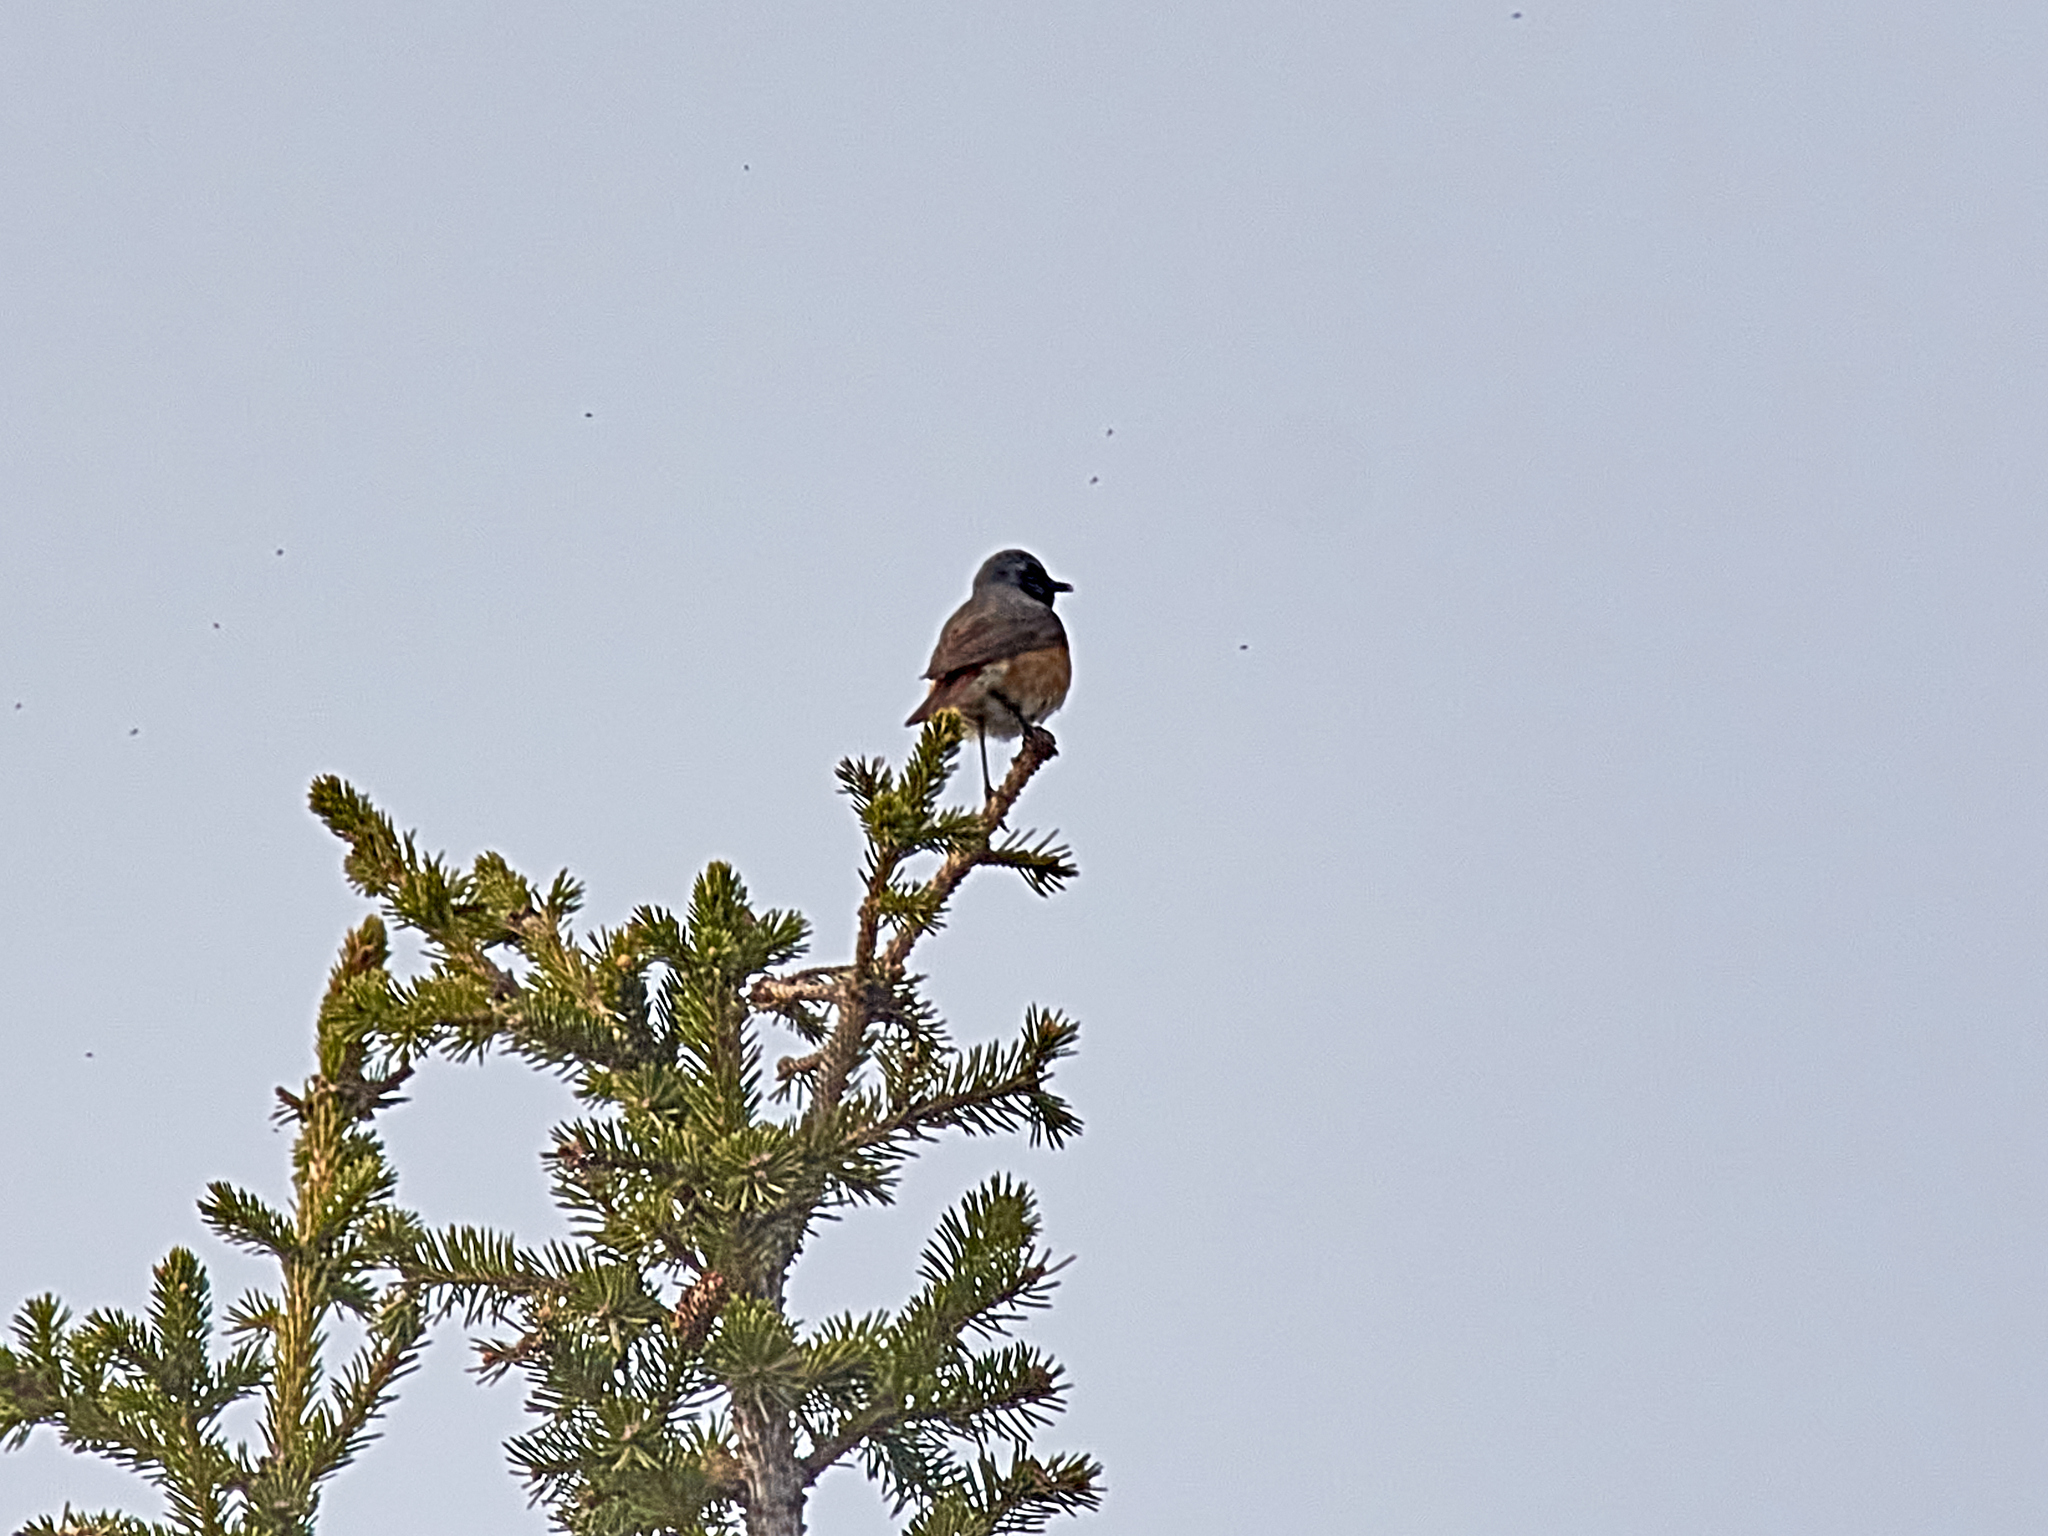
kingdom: Animalia
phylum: Chordata
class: Aves
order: Passeriformes
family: Muscicapidae
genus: Phoenicurus
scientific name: Phoenicurus phoenicurus
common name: Common redstart
